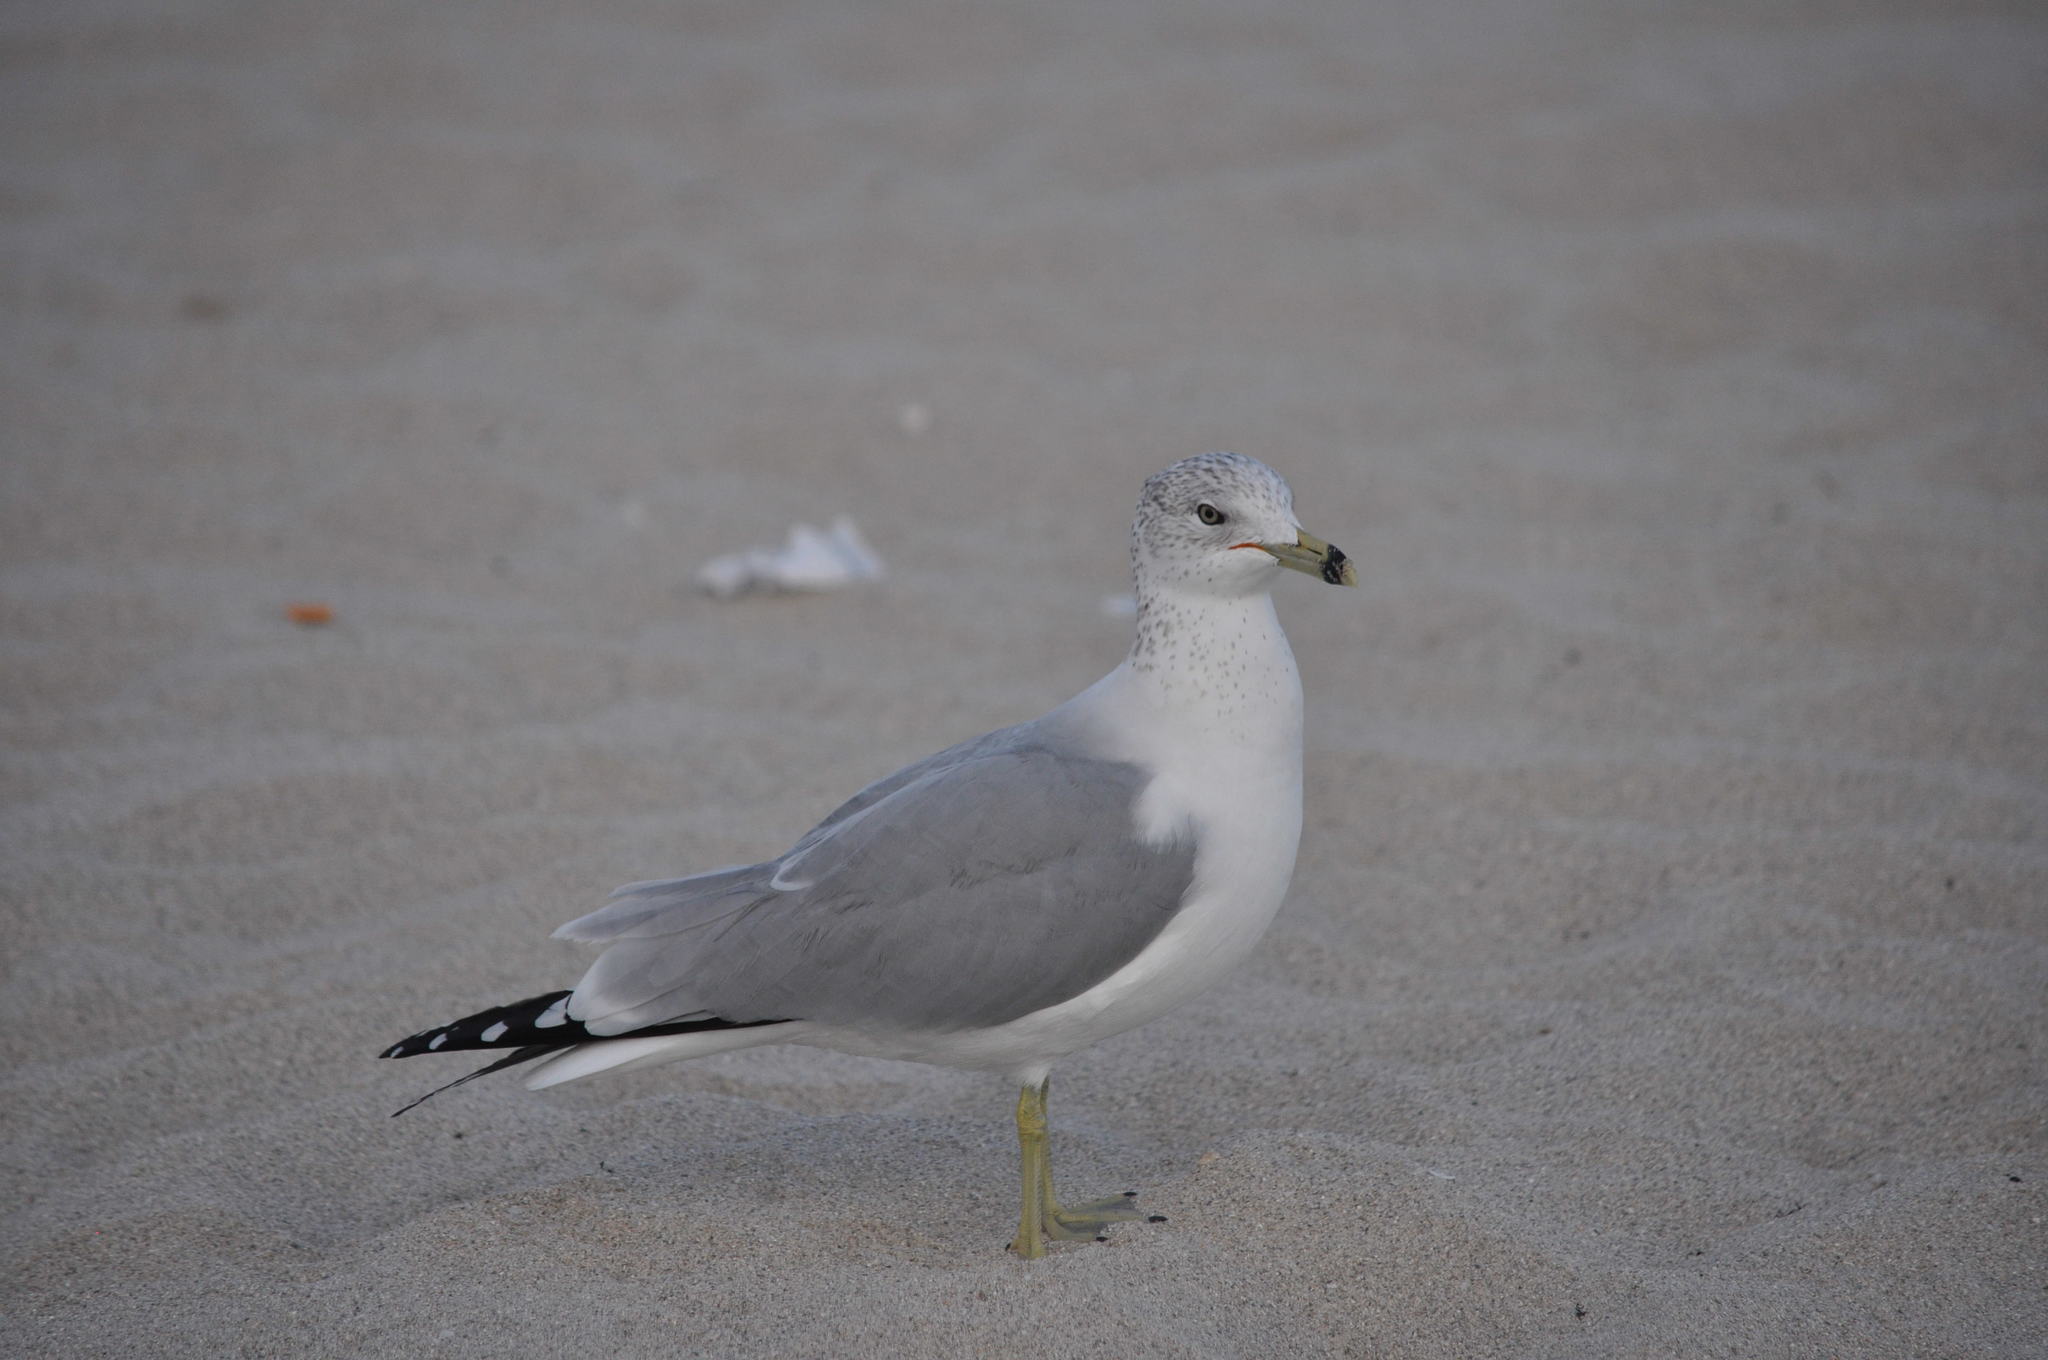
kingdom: Animalia
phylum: Chordata
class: Aves
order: Charadriiformes
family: Laridae
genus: Larus
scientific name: Larus delawarensis
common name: Ring-billed gull
